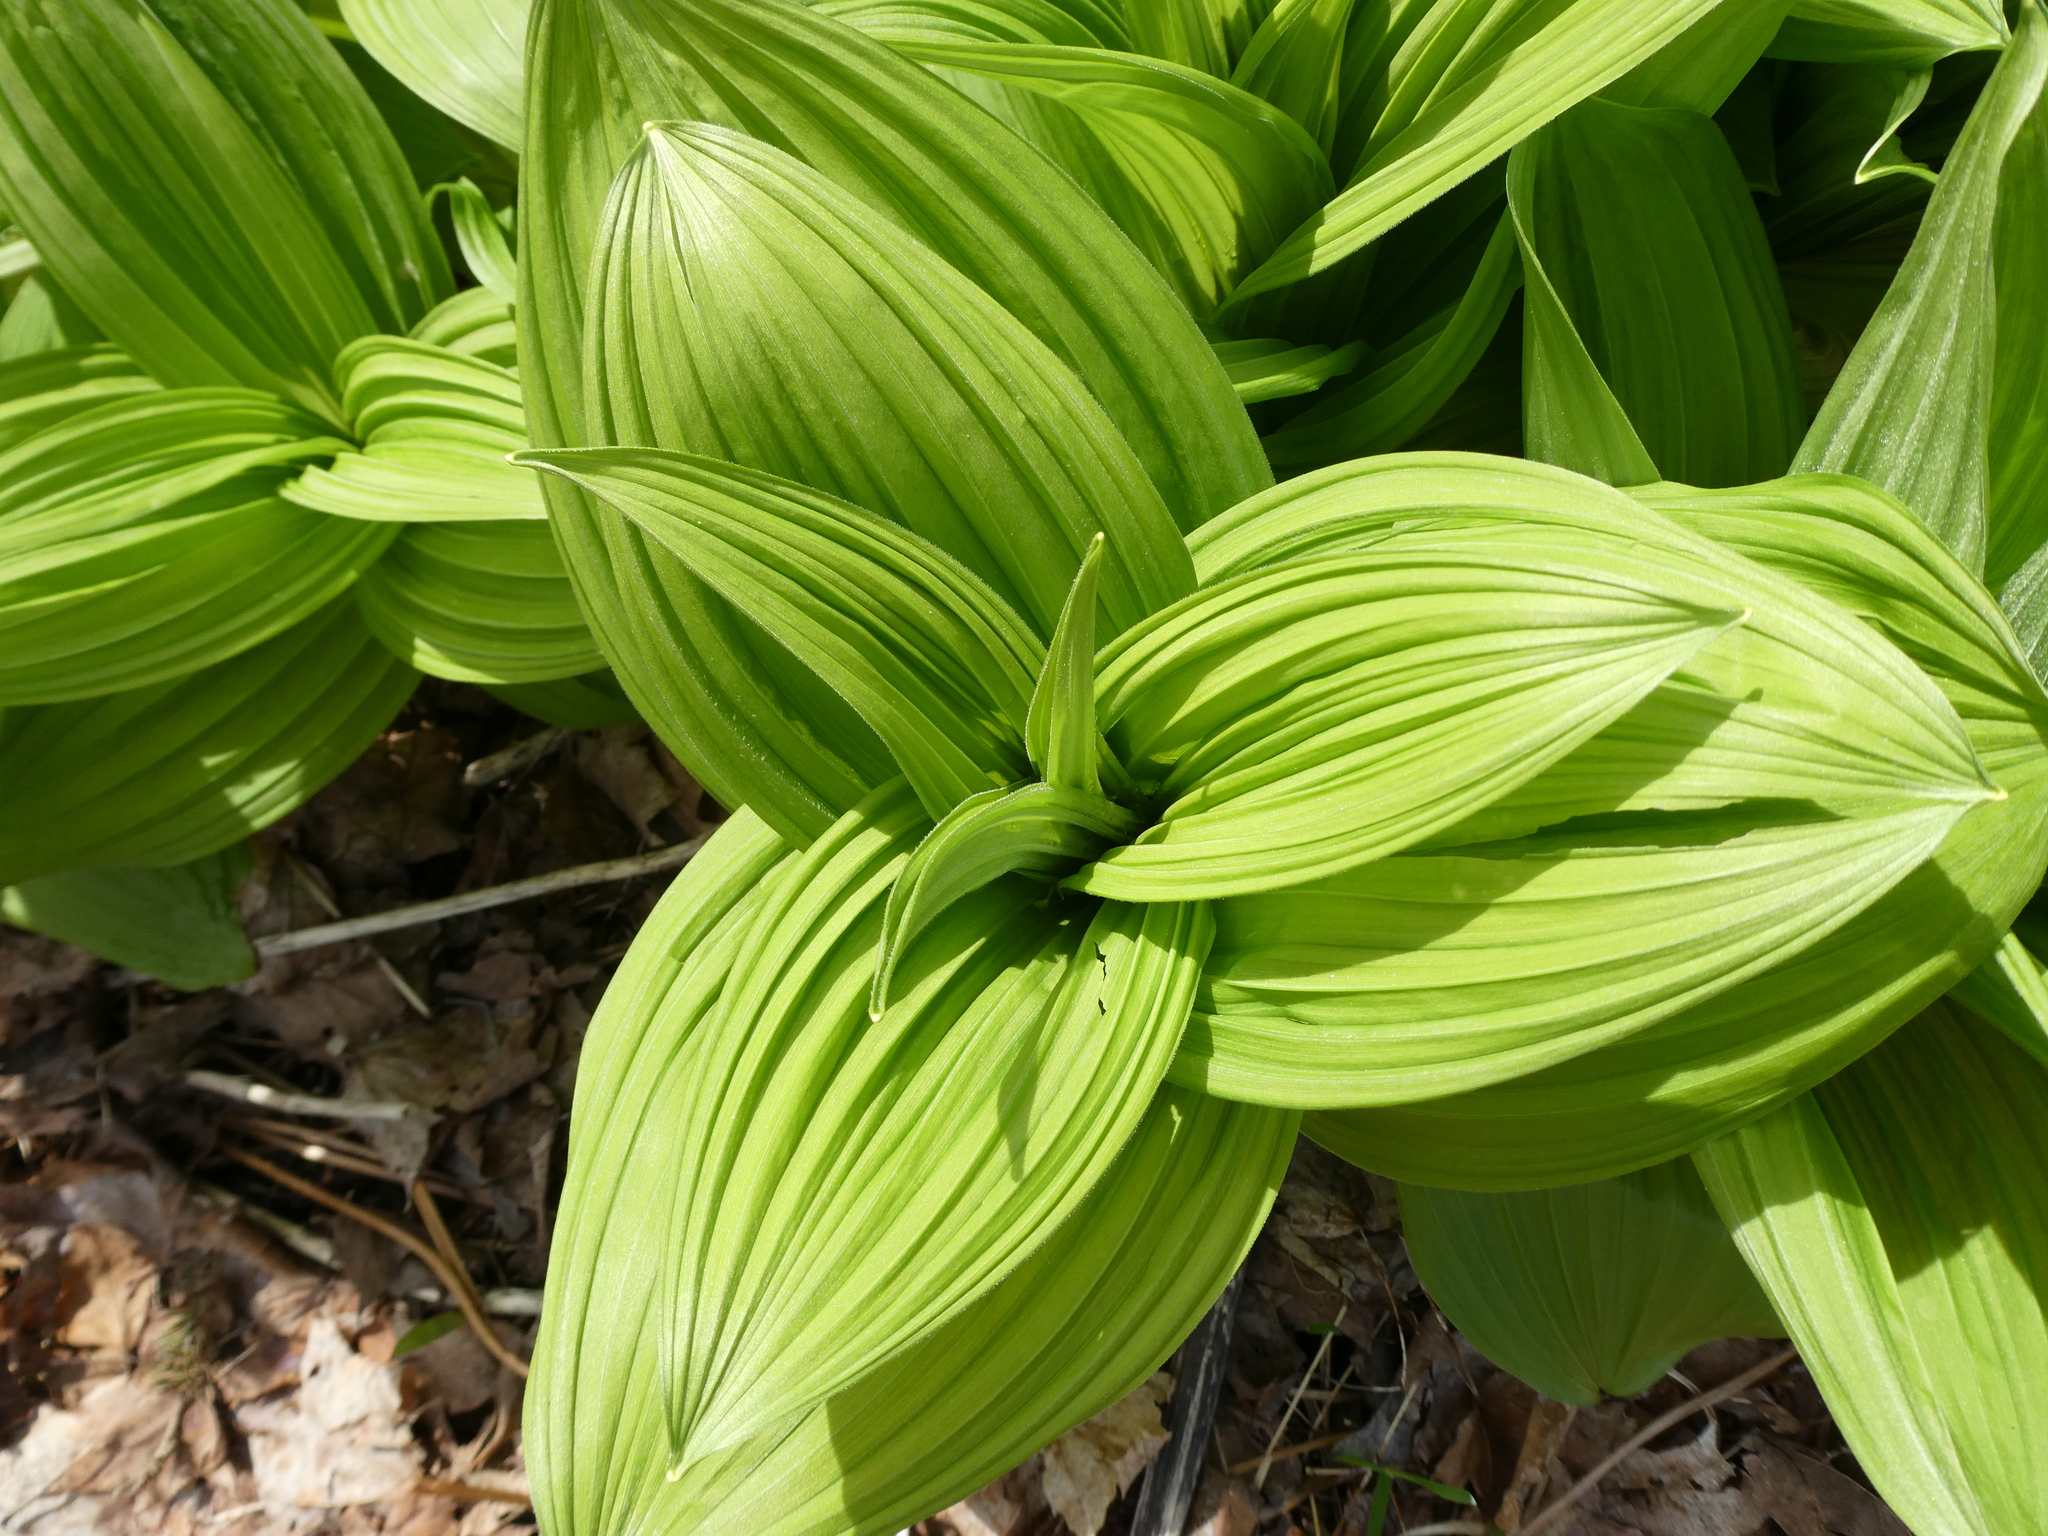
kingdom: Plantae
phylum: Tracheophyta
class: Liliopsida
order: Liliales
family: Melanthiaceae
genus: Veratrum
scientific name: Veratrum viride
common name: American false hellebore
